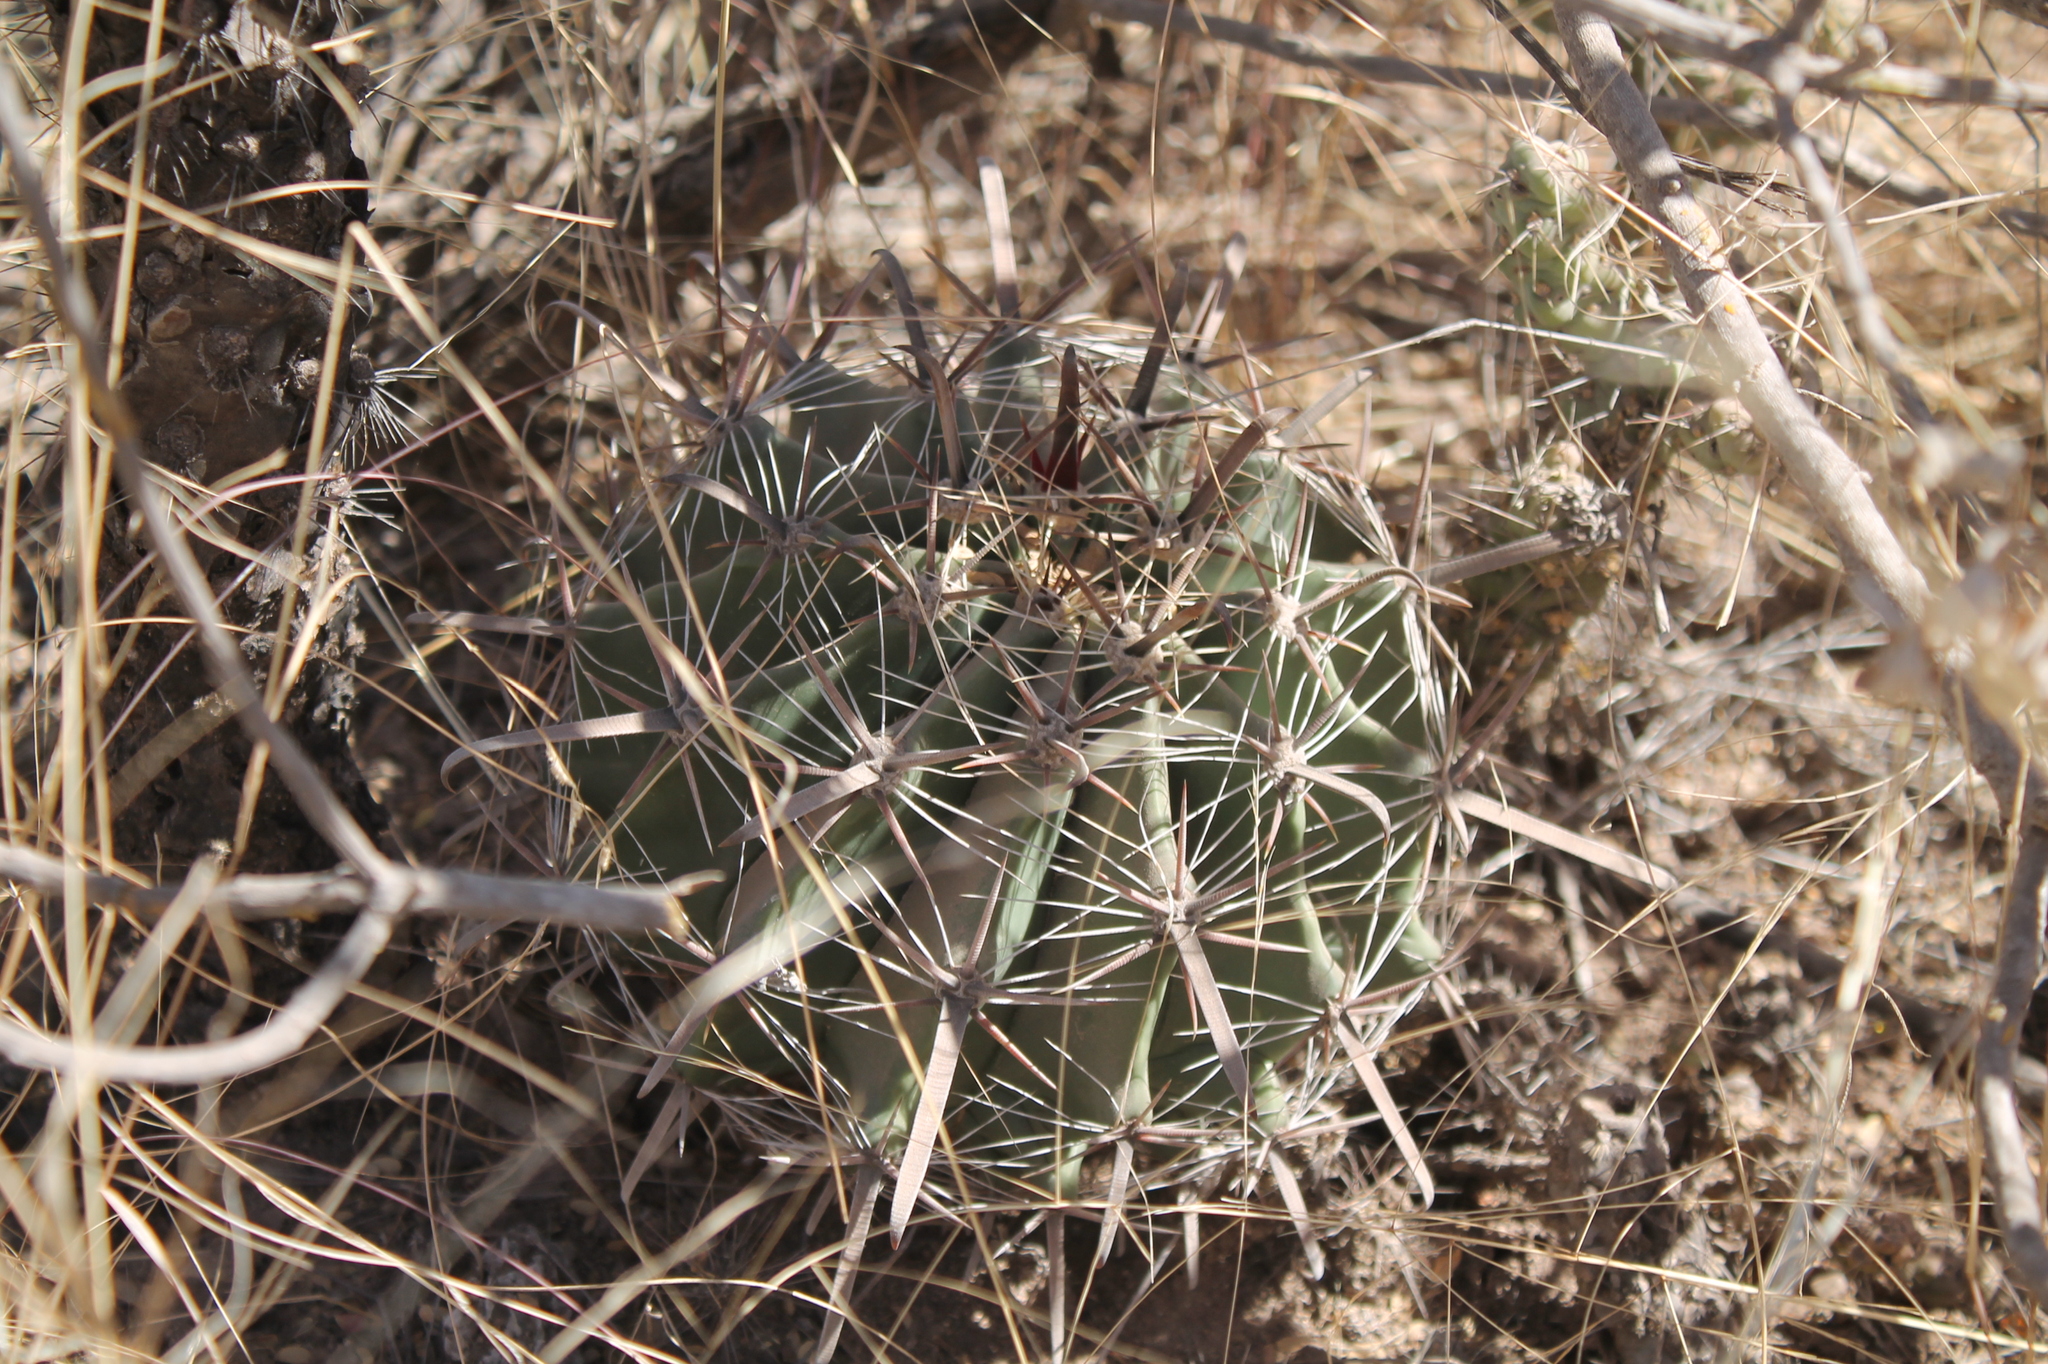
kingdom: Plantae
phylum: Tracheophyta
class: Magnoliopsida
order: Caryophyllales
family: Cactaceae
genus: Ferocactus
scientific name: Ferocactus wislizeni
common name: Candy barrel cactus
